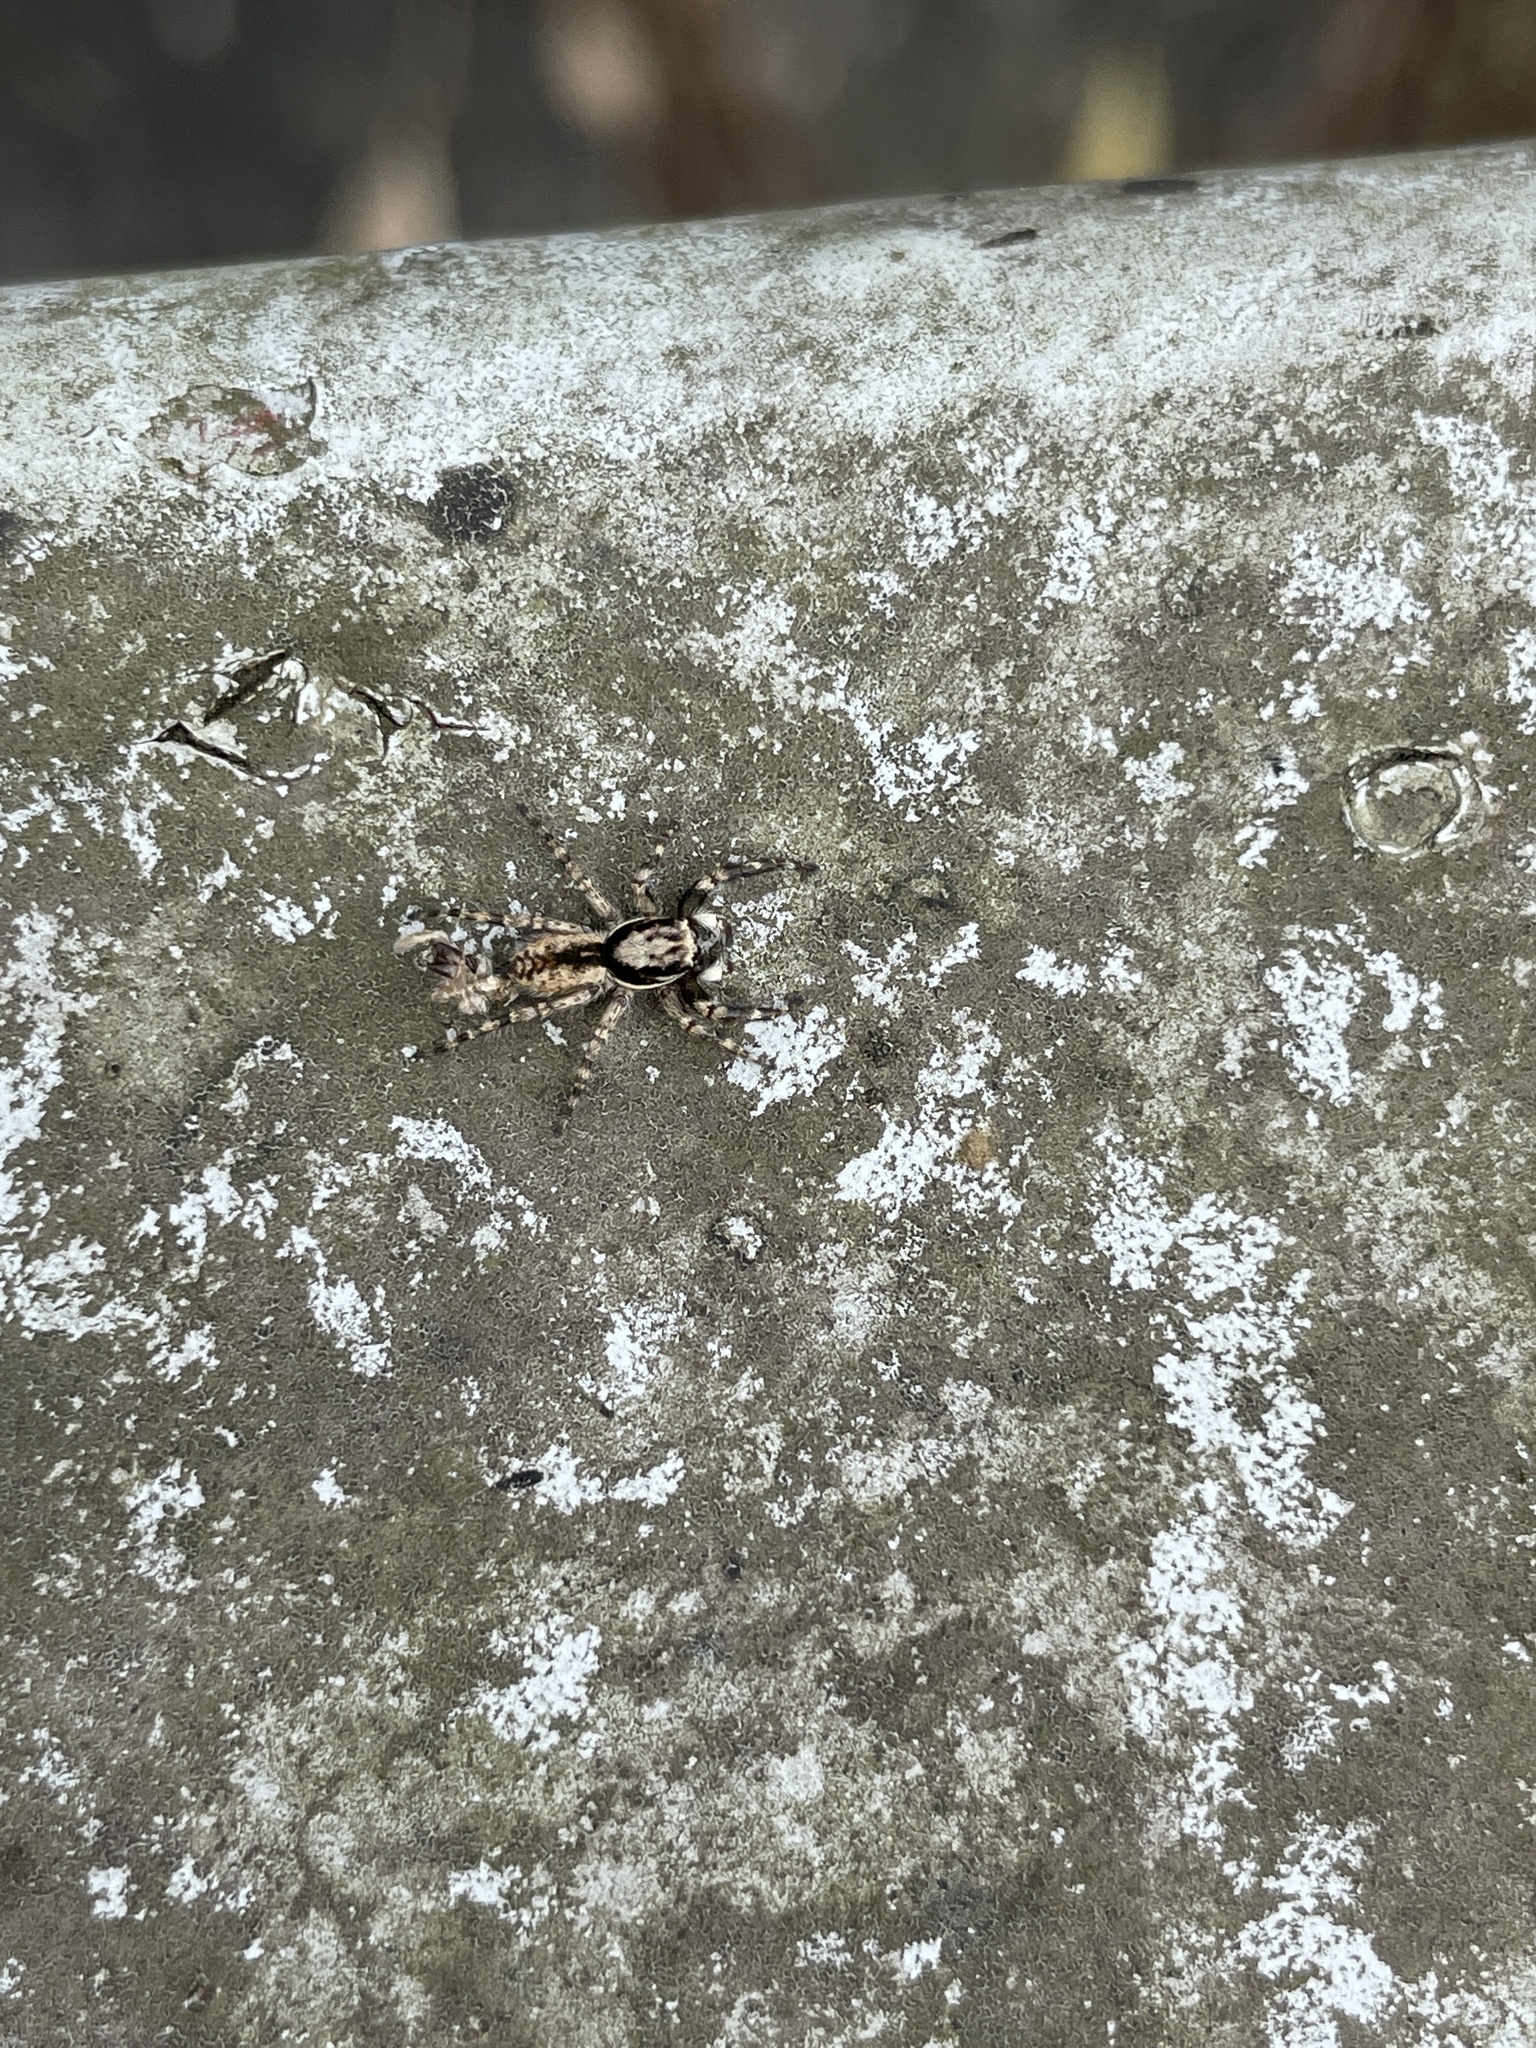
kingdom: Animalia
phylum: Arthropoda
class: Arachnida
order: Araneae
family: Salticidae
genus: Menemerus
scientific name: Menemerus bivittatus
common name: Gray wall jumper
